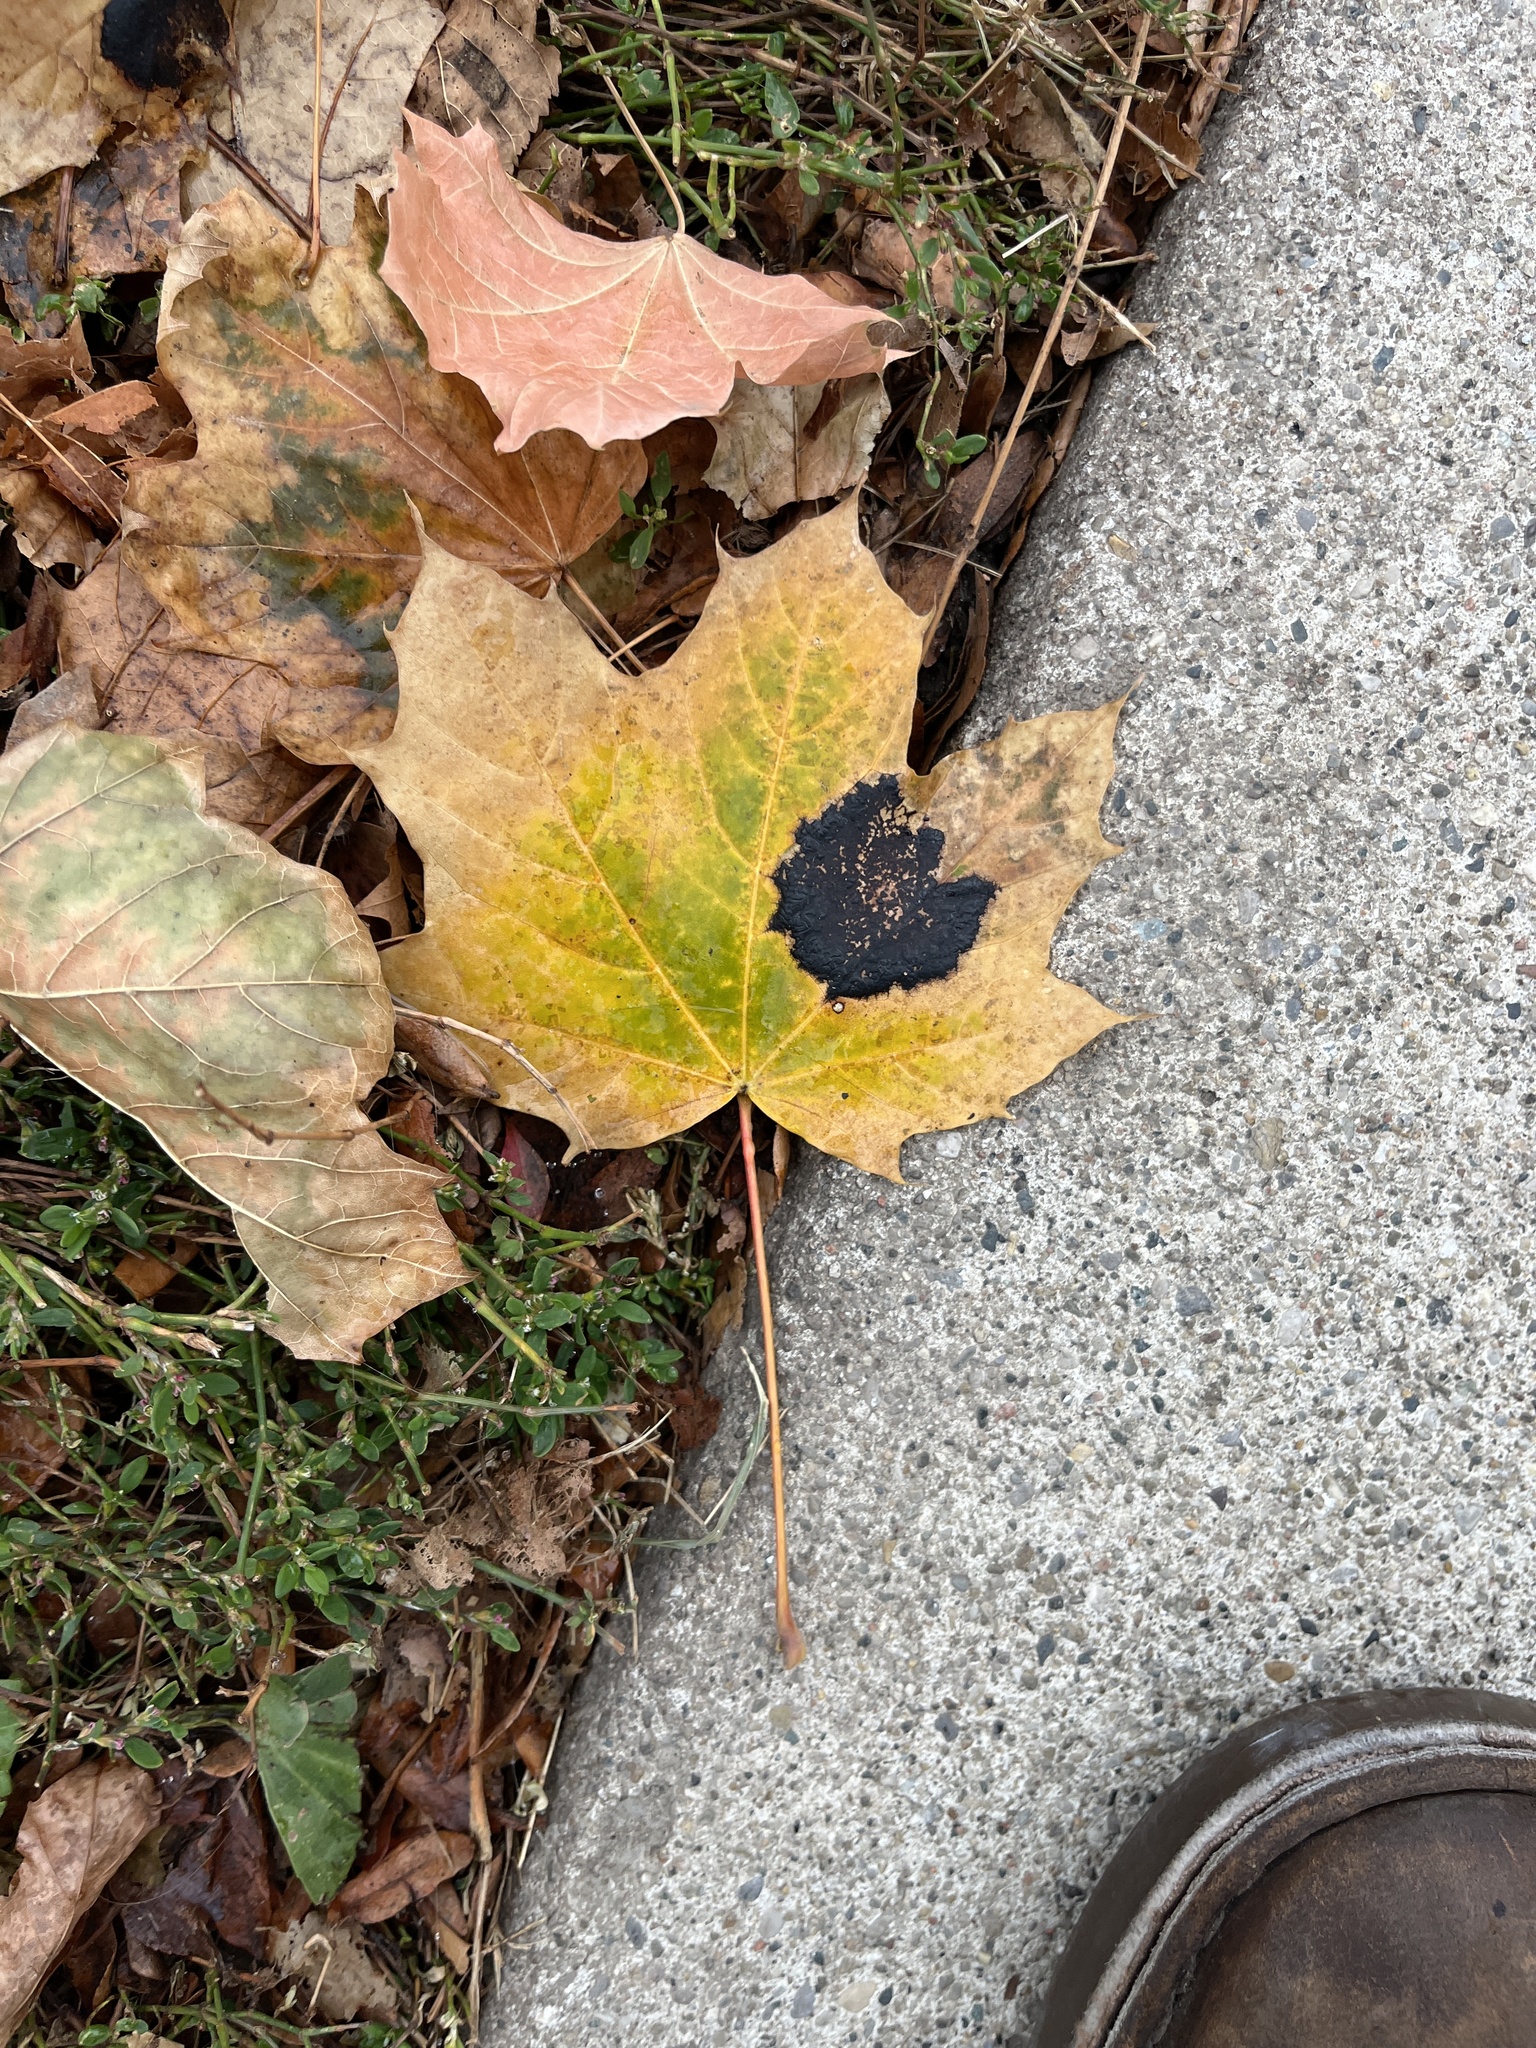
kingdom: Fungi
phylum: Ascomycota
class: Leotiomycetes
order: Rhytismatales
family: Rhytismataceae
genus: Rhytisma
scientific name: Rhytisma acerinum
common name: European tar spot
